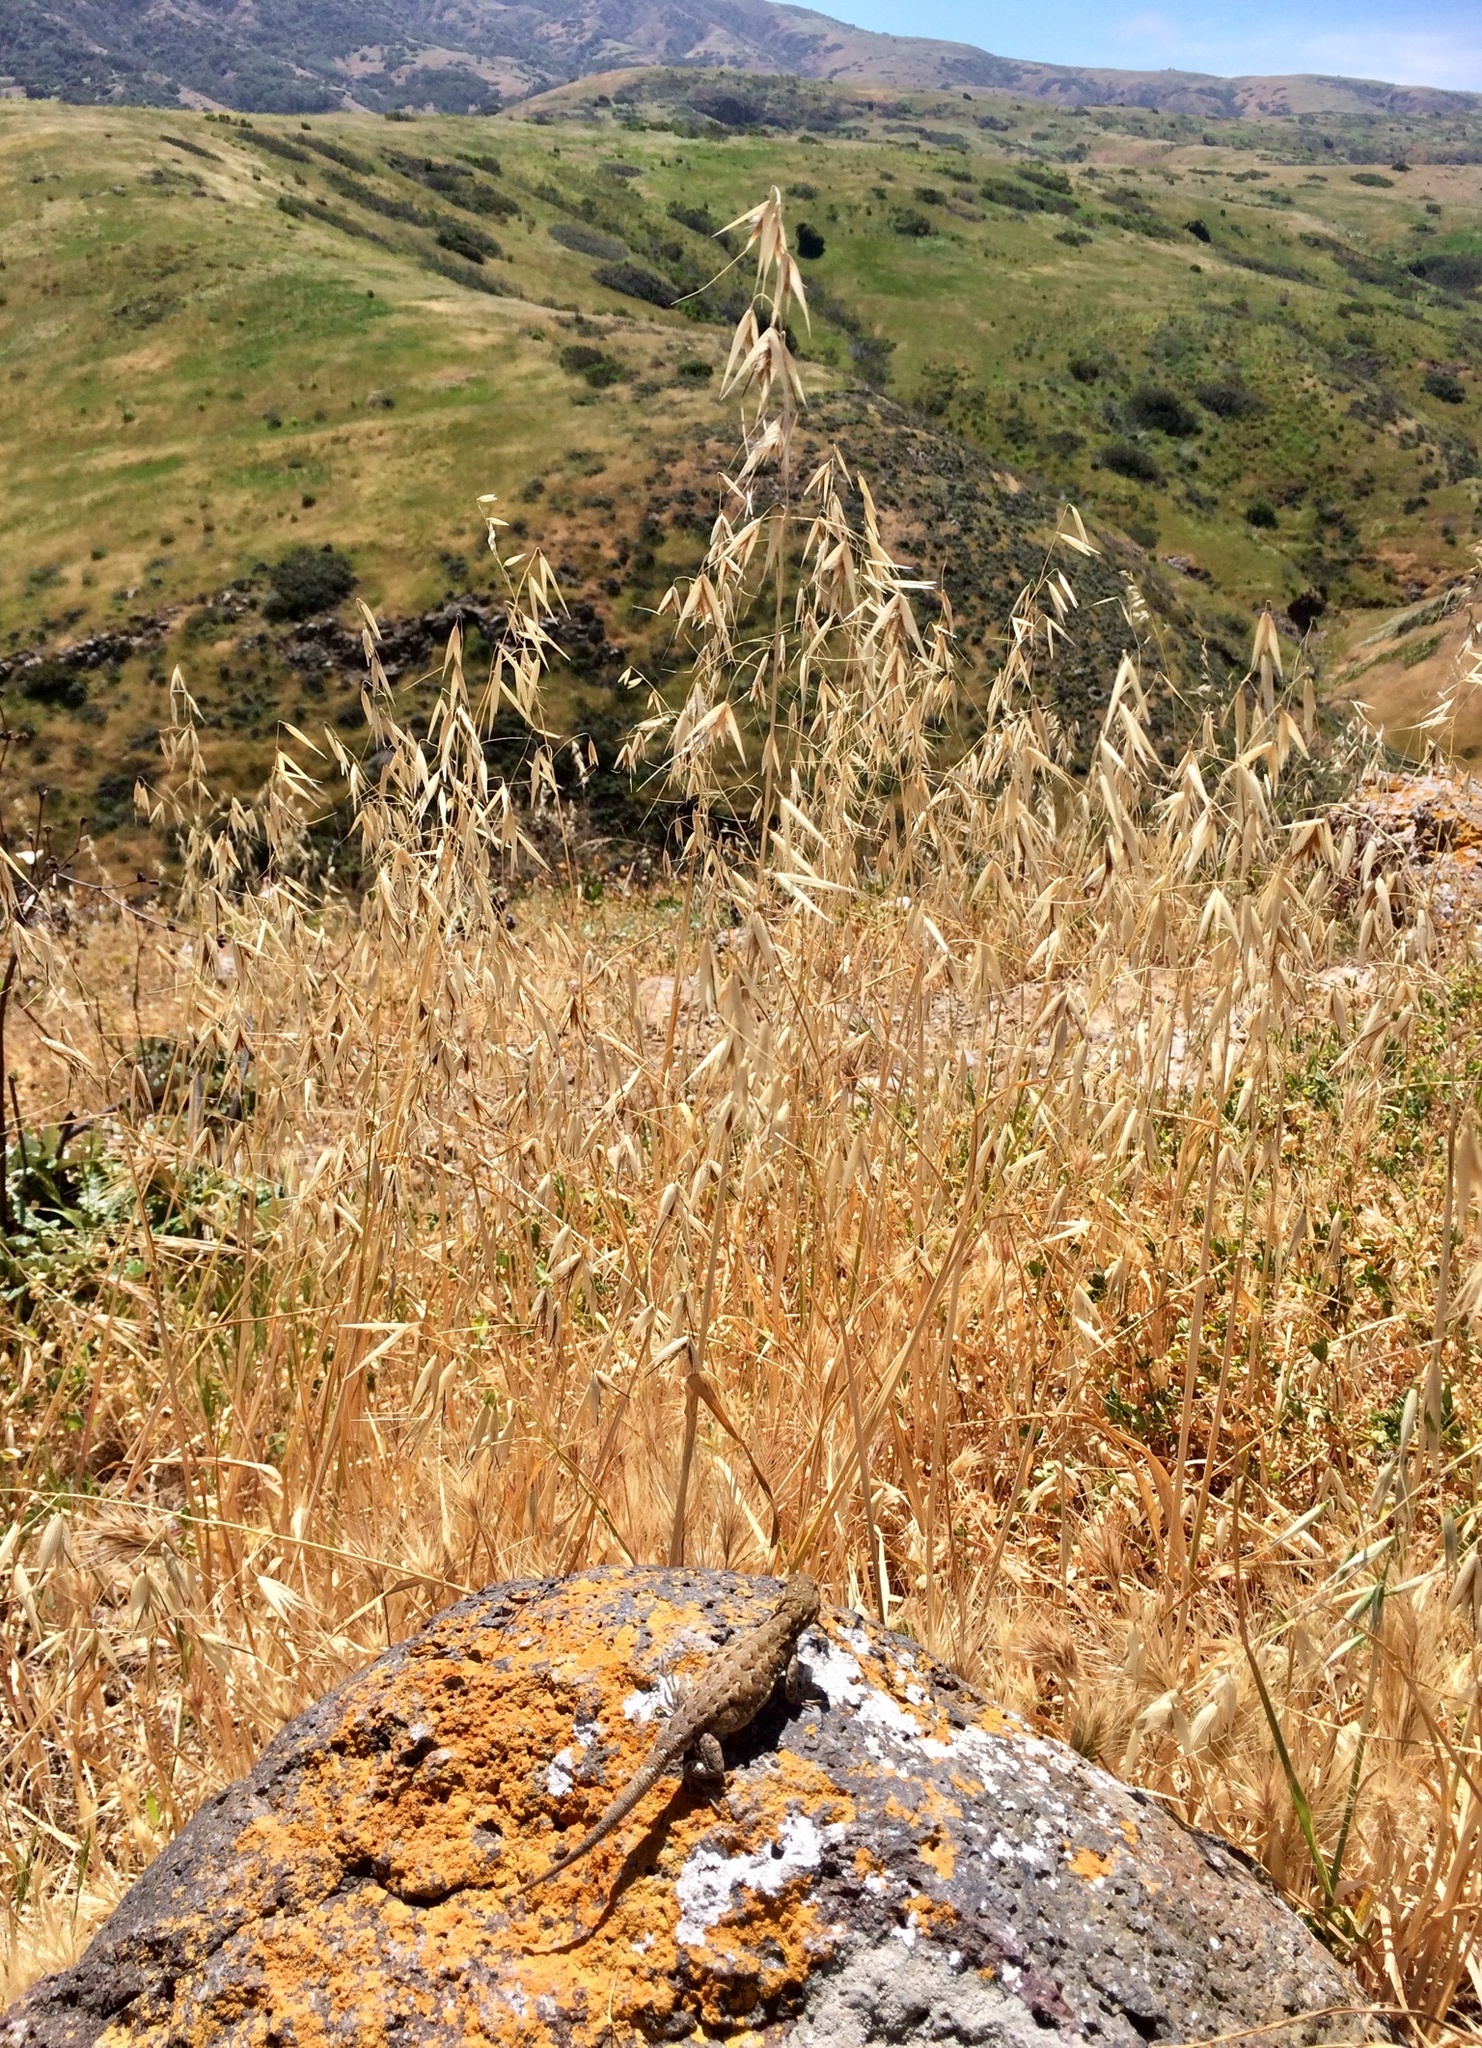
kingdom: Animalia
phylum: Chordata
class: Squamata
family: Phrynosomatidae
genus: Uta
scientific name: Uta stansburiana
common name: Side-blotched lizard
